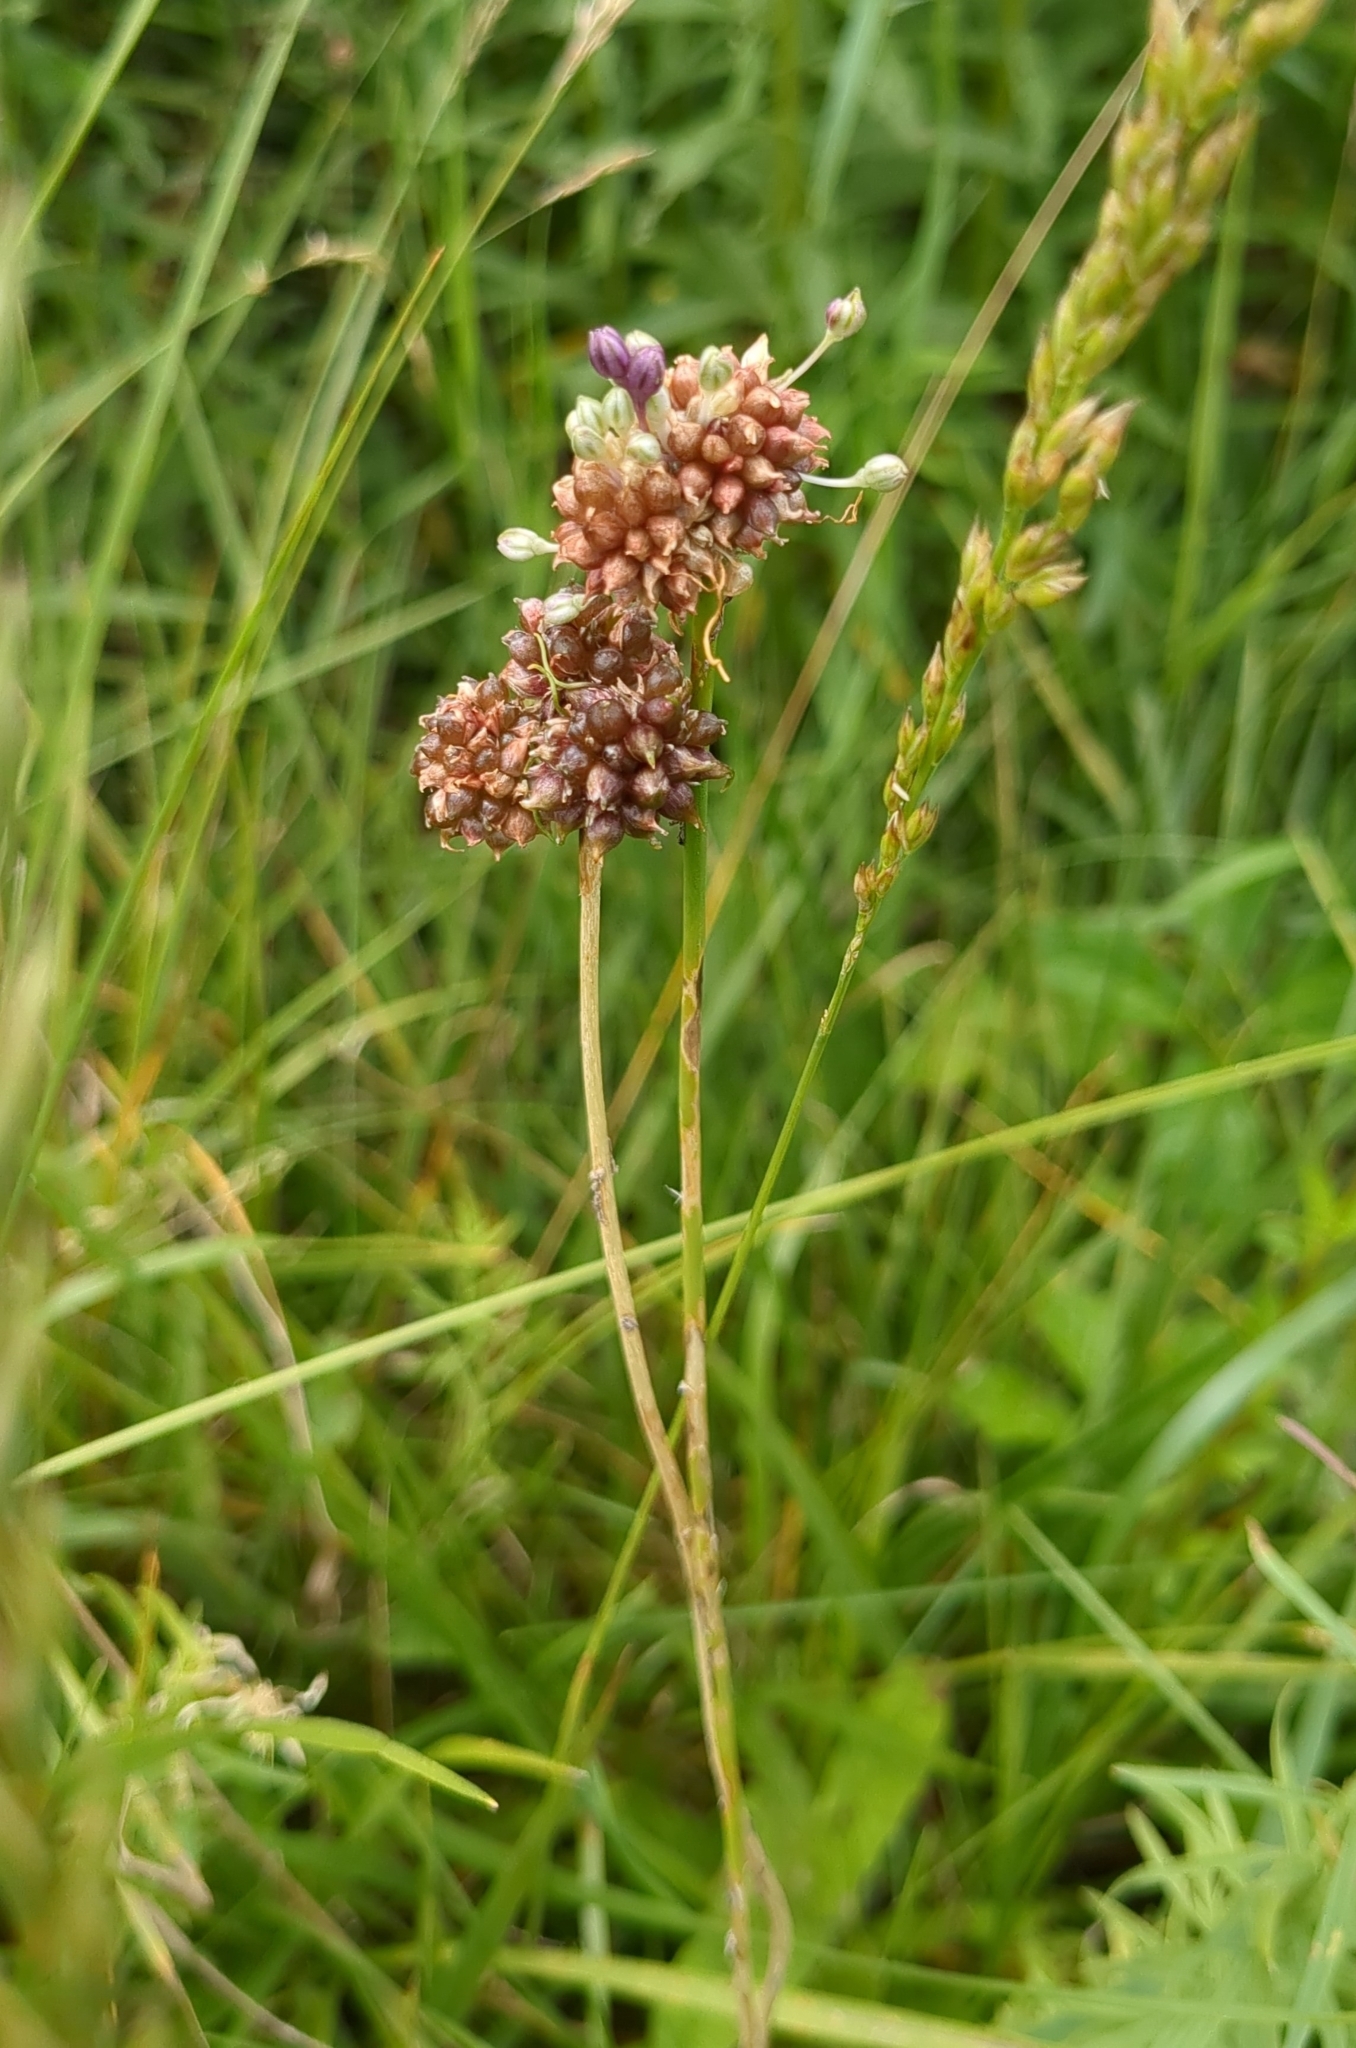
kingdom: Plantae
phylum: Tracheophyta
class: Liliopsida
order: Asparagales
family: Amaryllidaceae
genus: Allium
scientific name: Allium vineale
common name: Crow garlic
